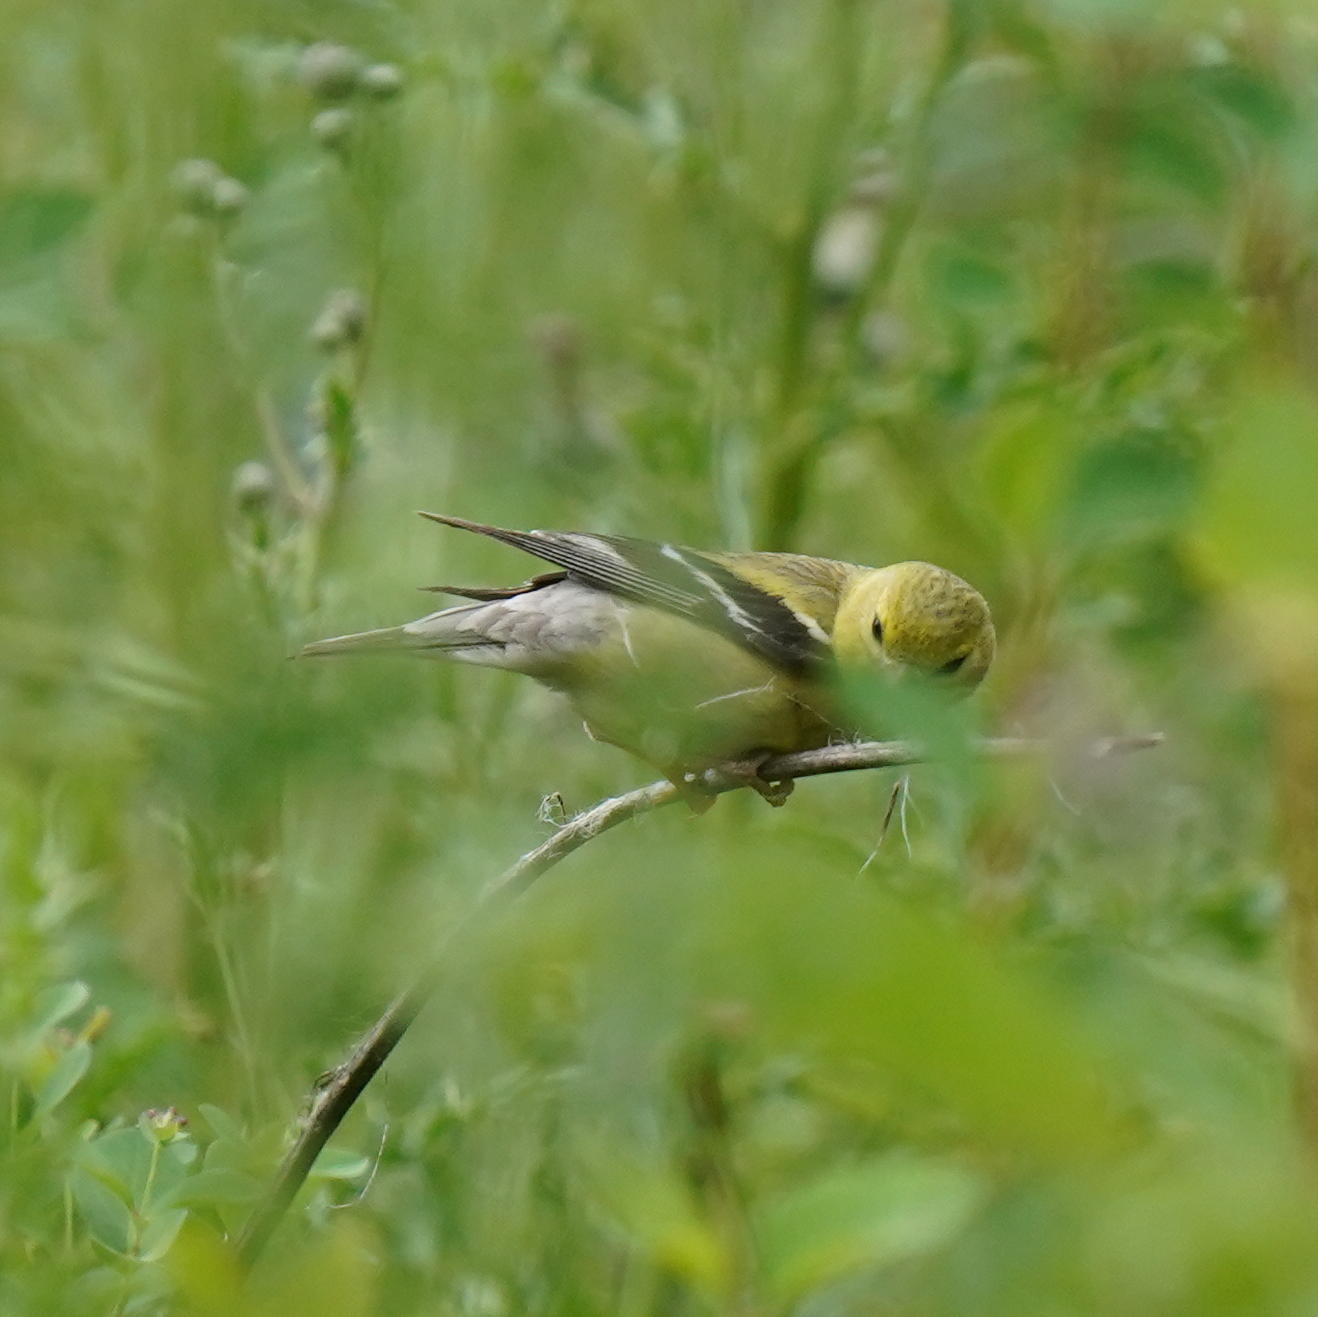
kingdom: Animalia
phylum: Chordata
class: Aves
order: Passeriformes
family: Fringillidae
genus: Spinus
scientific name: Spinus tristis
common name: American goldfinch
